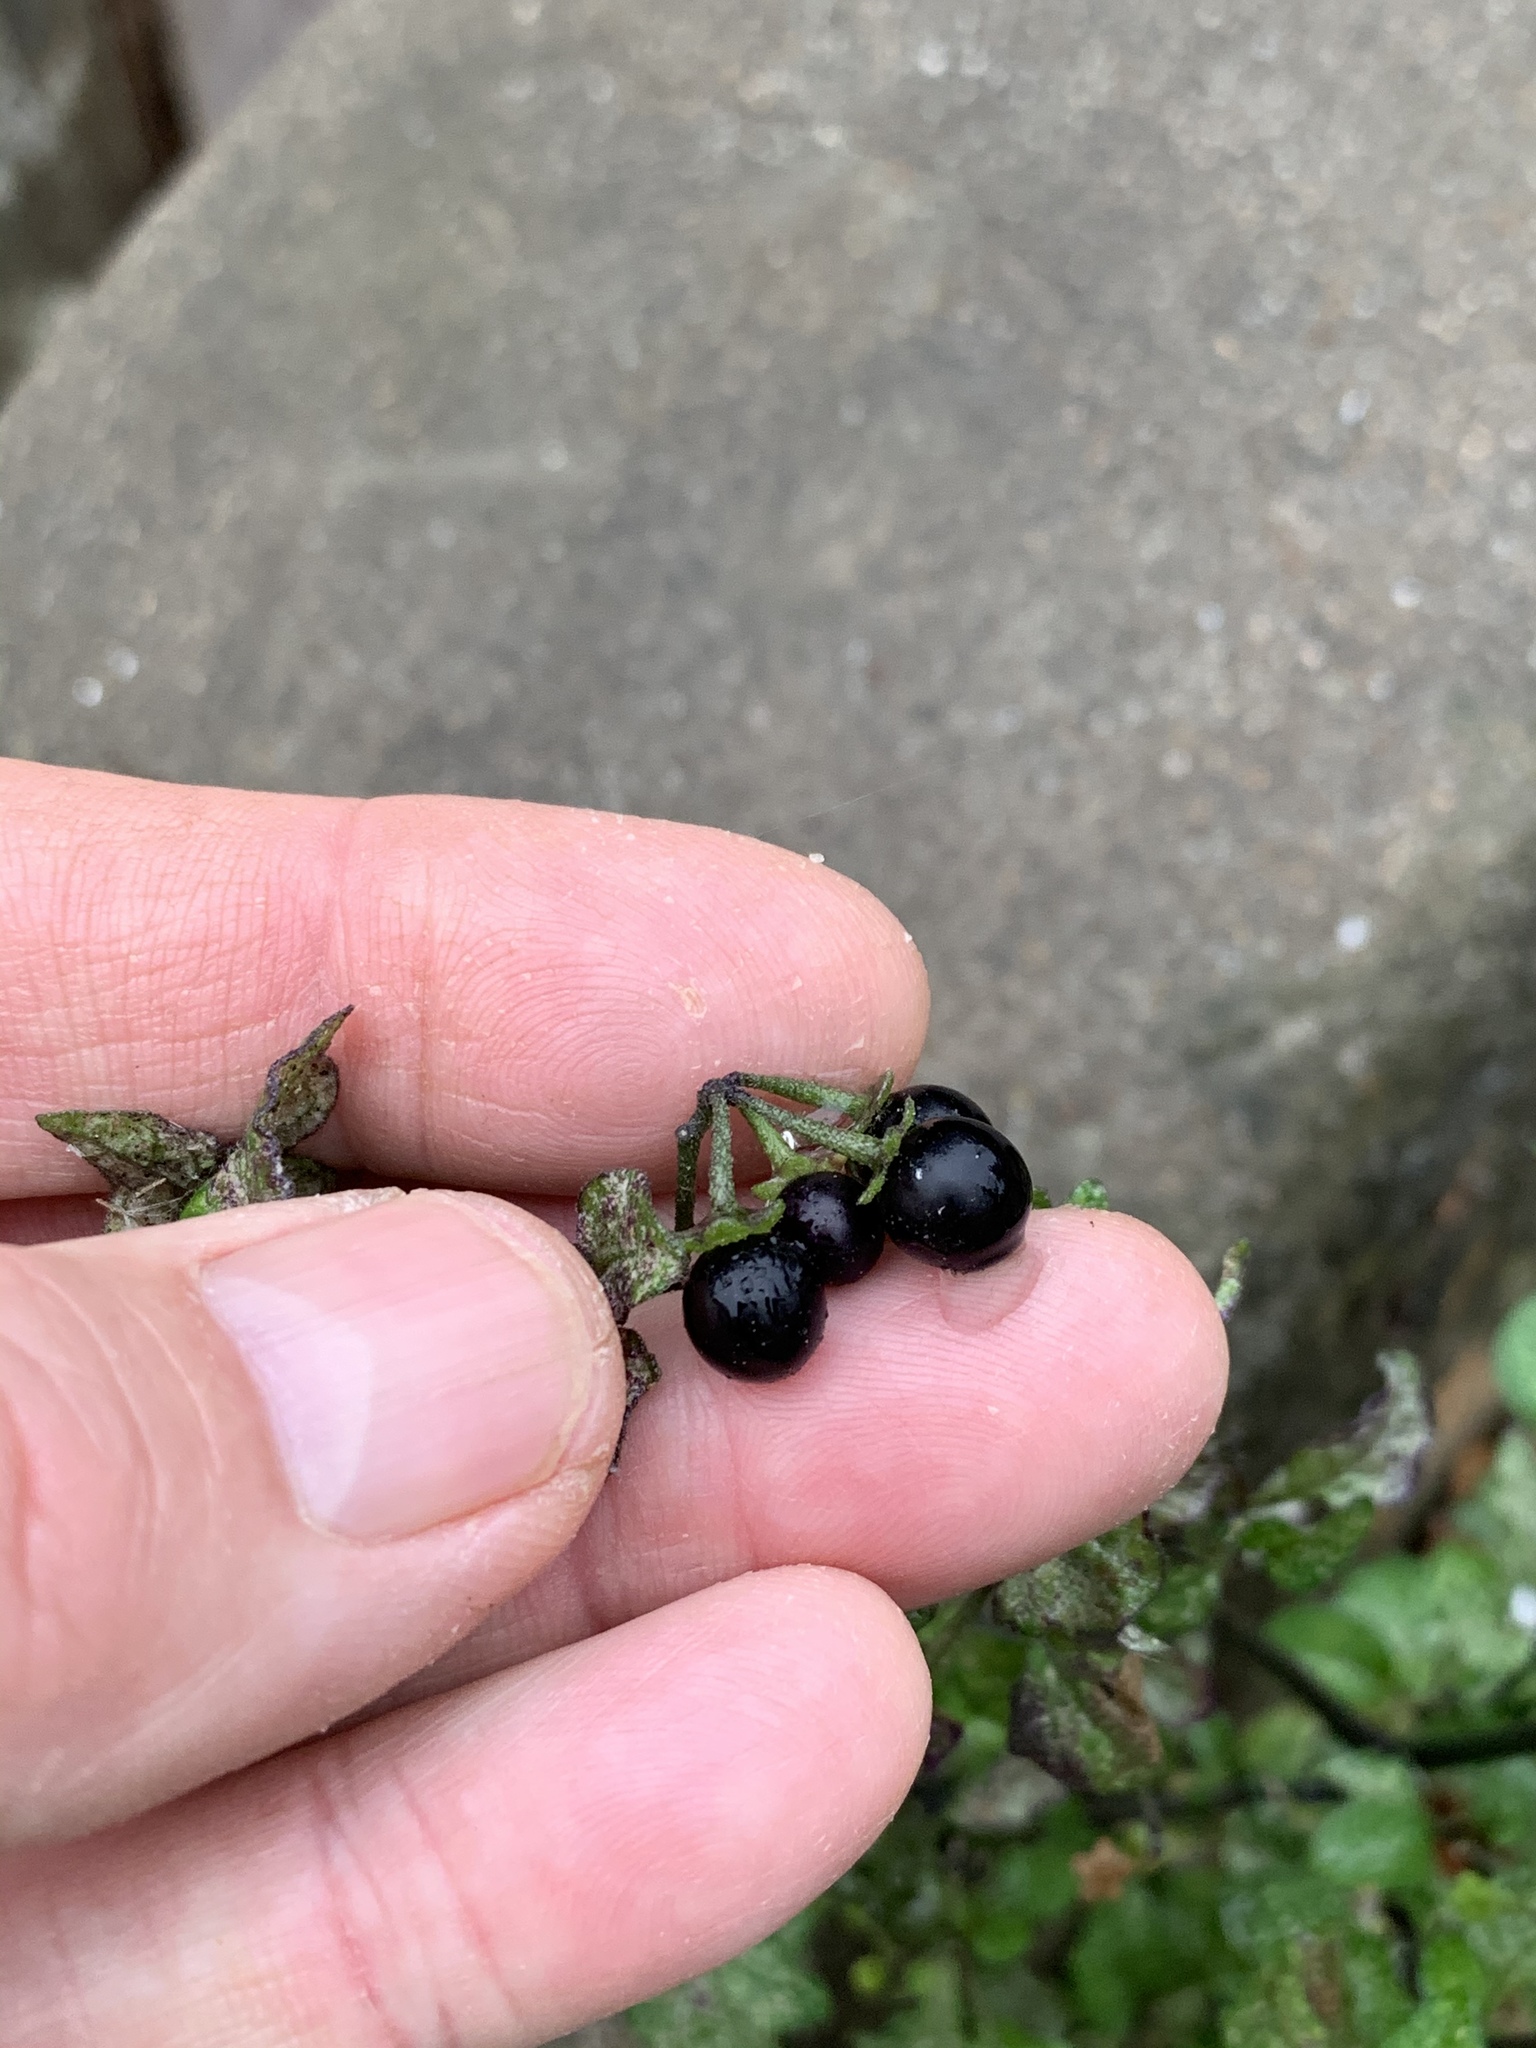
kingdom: Plantae
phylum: Tracheophyta
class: Magnoliopsida
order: Solanales
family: Solanaceae
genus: Solanum
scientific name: Solanum nigrum
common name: Black nightshade
